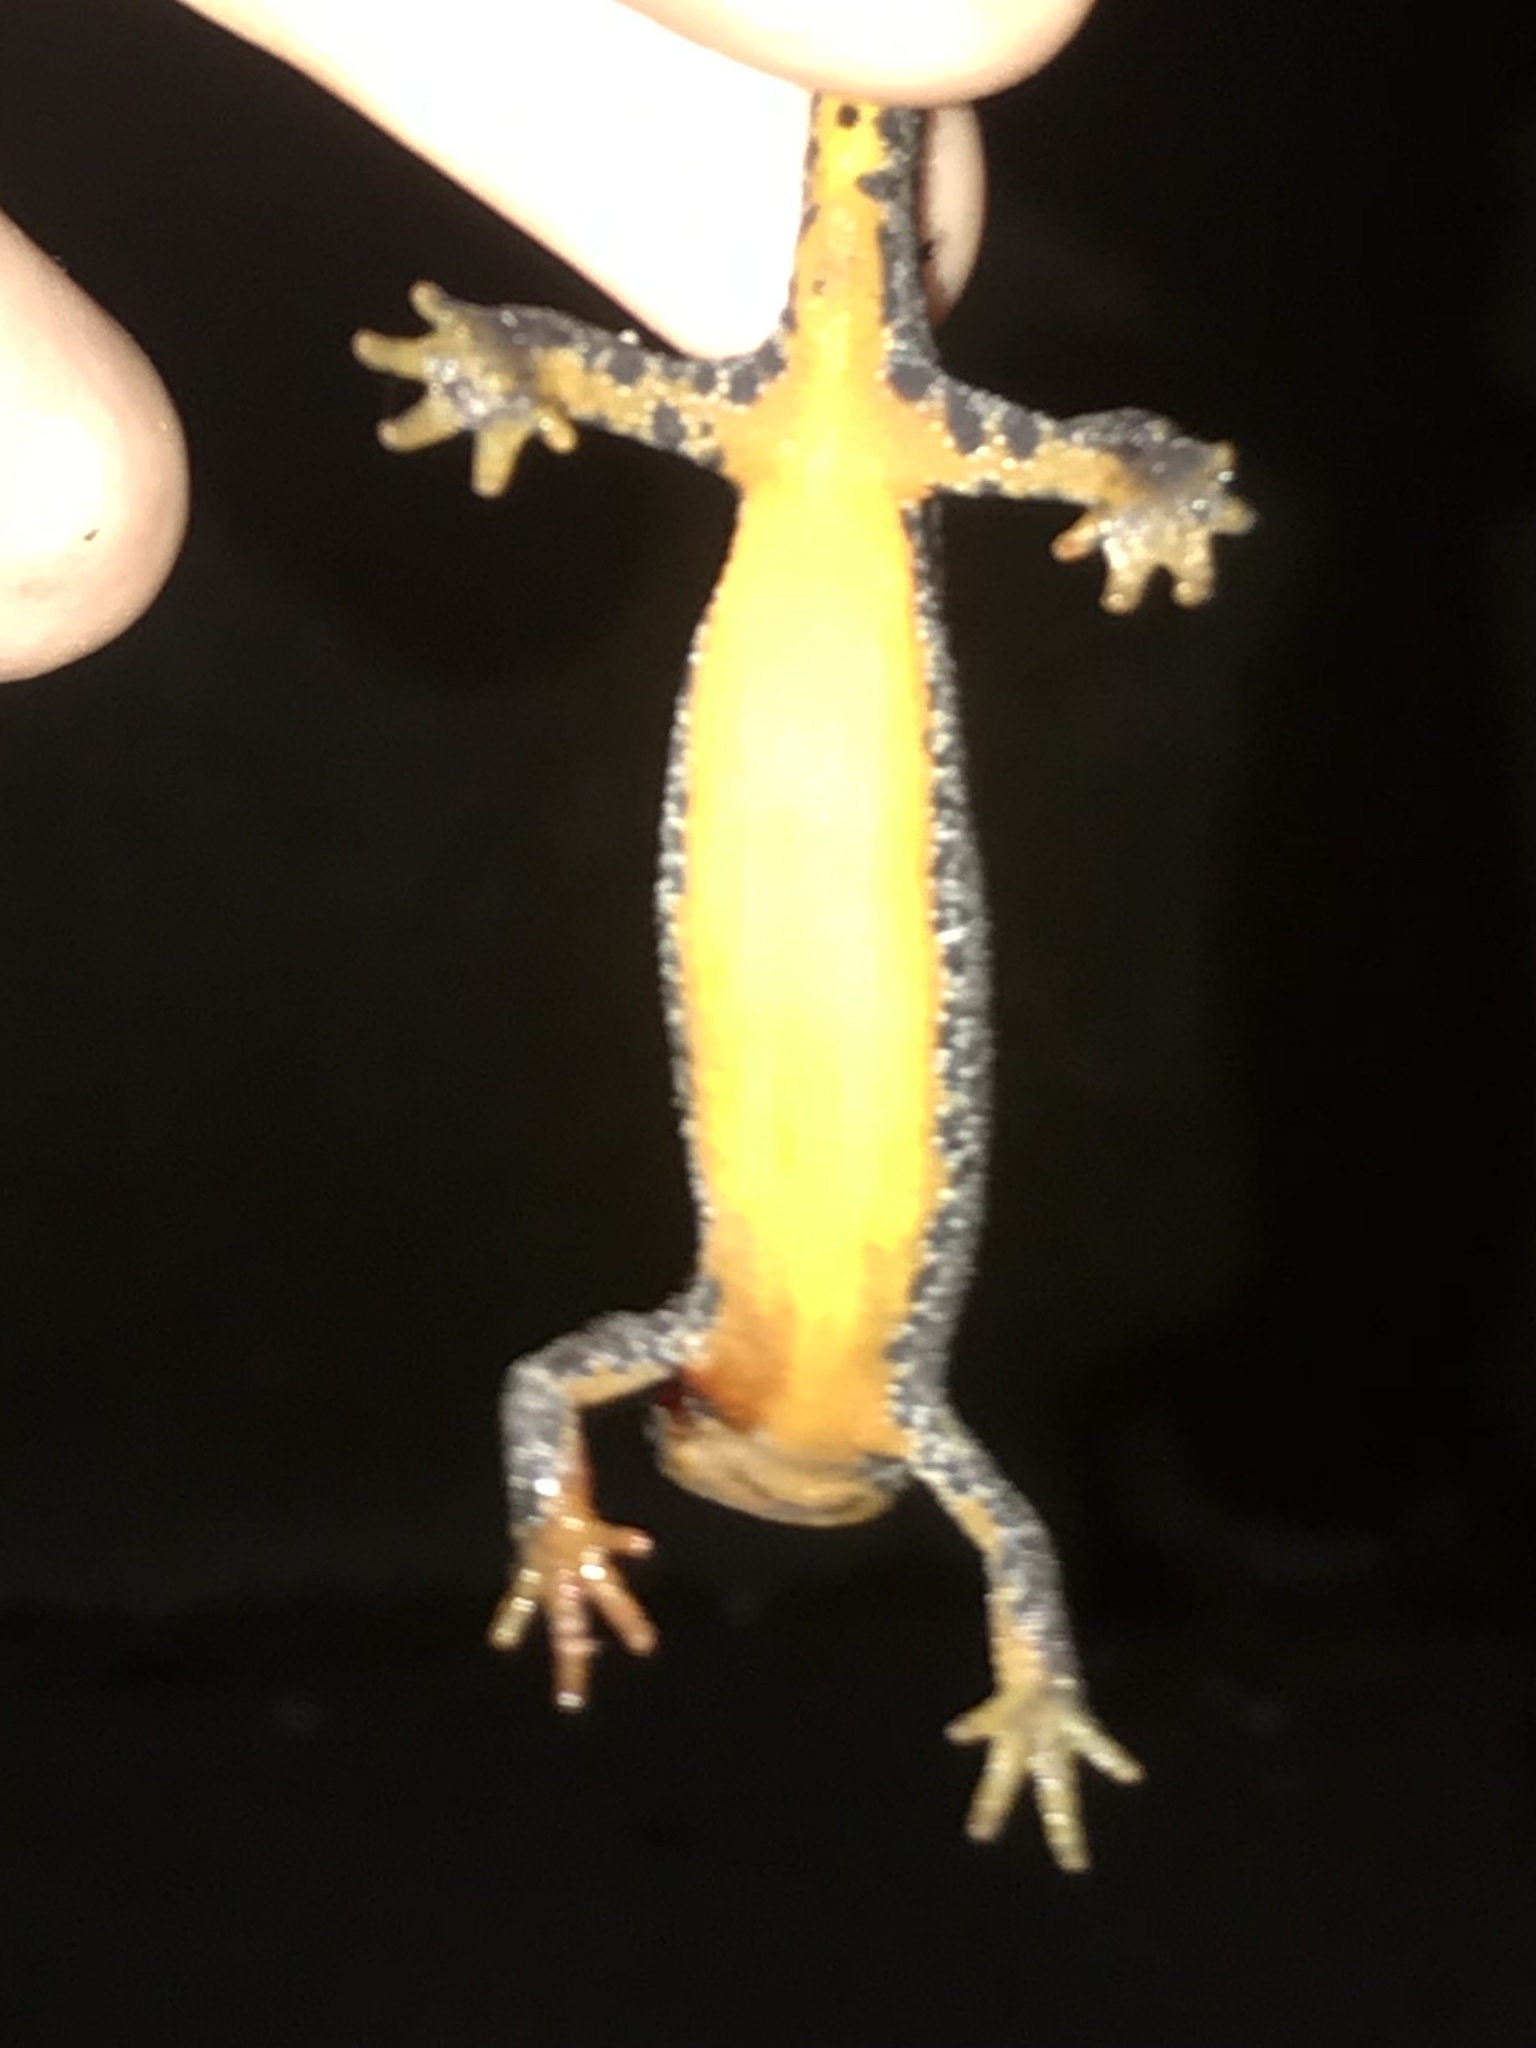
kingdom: Animalia
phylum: Chordata
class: Amphibia
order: Caudata
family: Salamandridae
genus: Ichthyosaura
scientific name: Ichthyosaura alpestris
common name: Alpine newt
